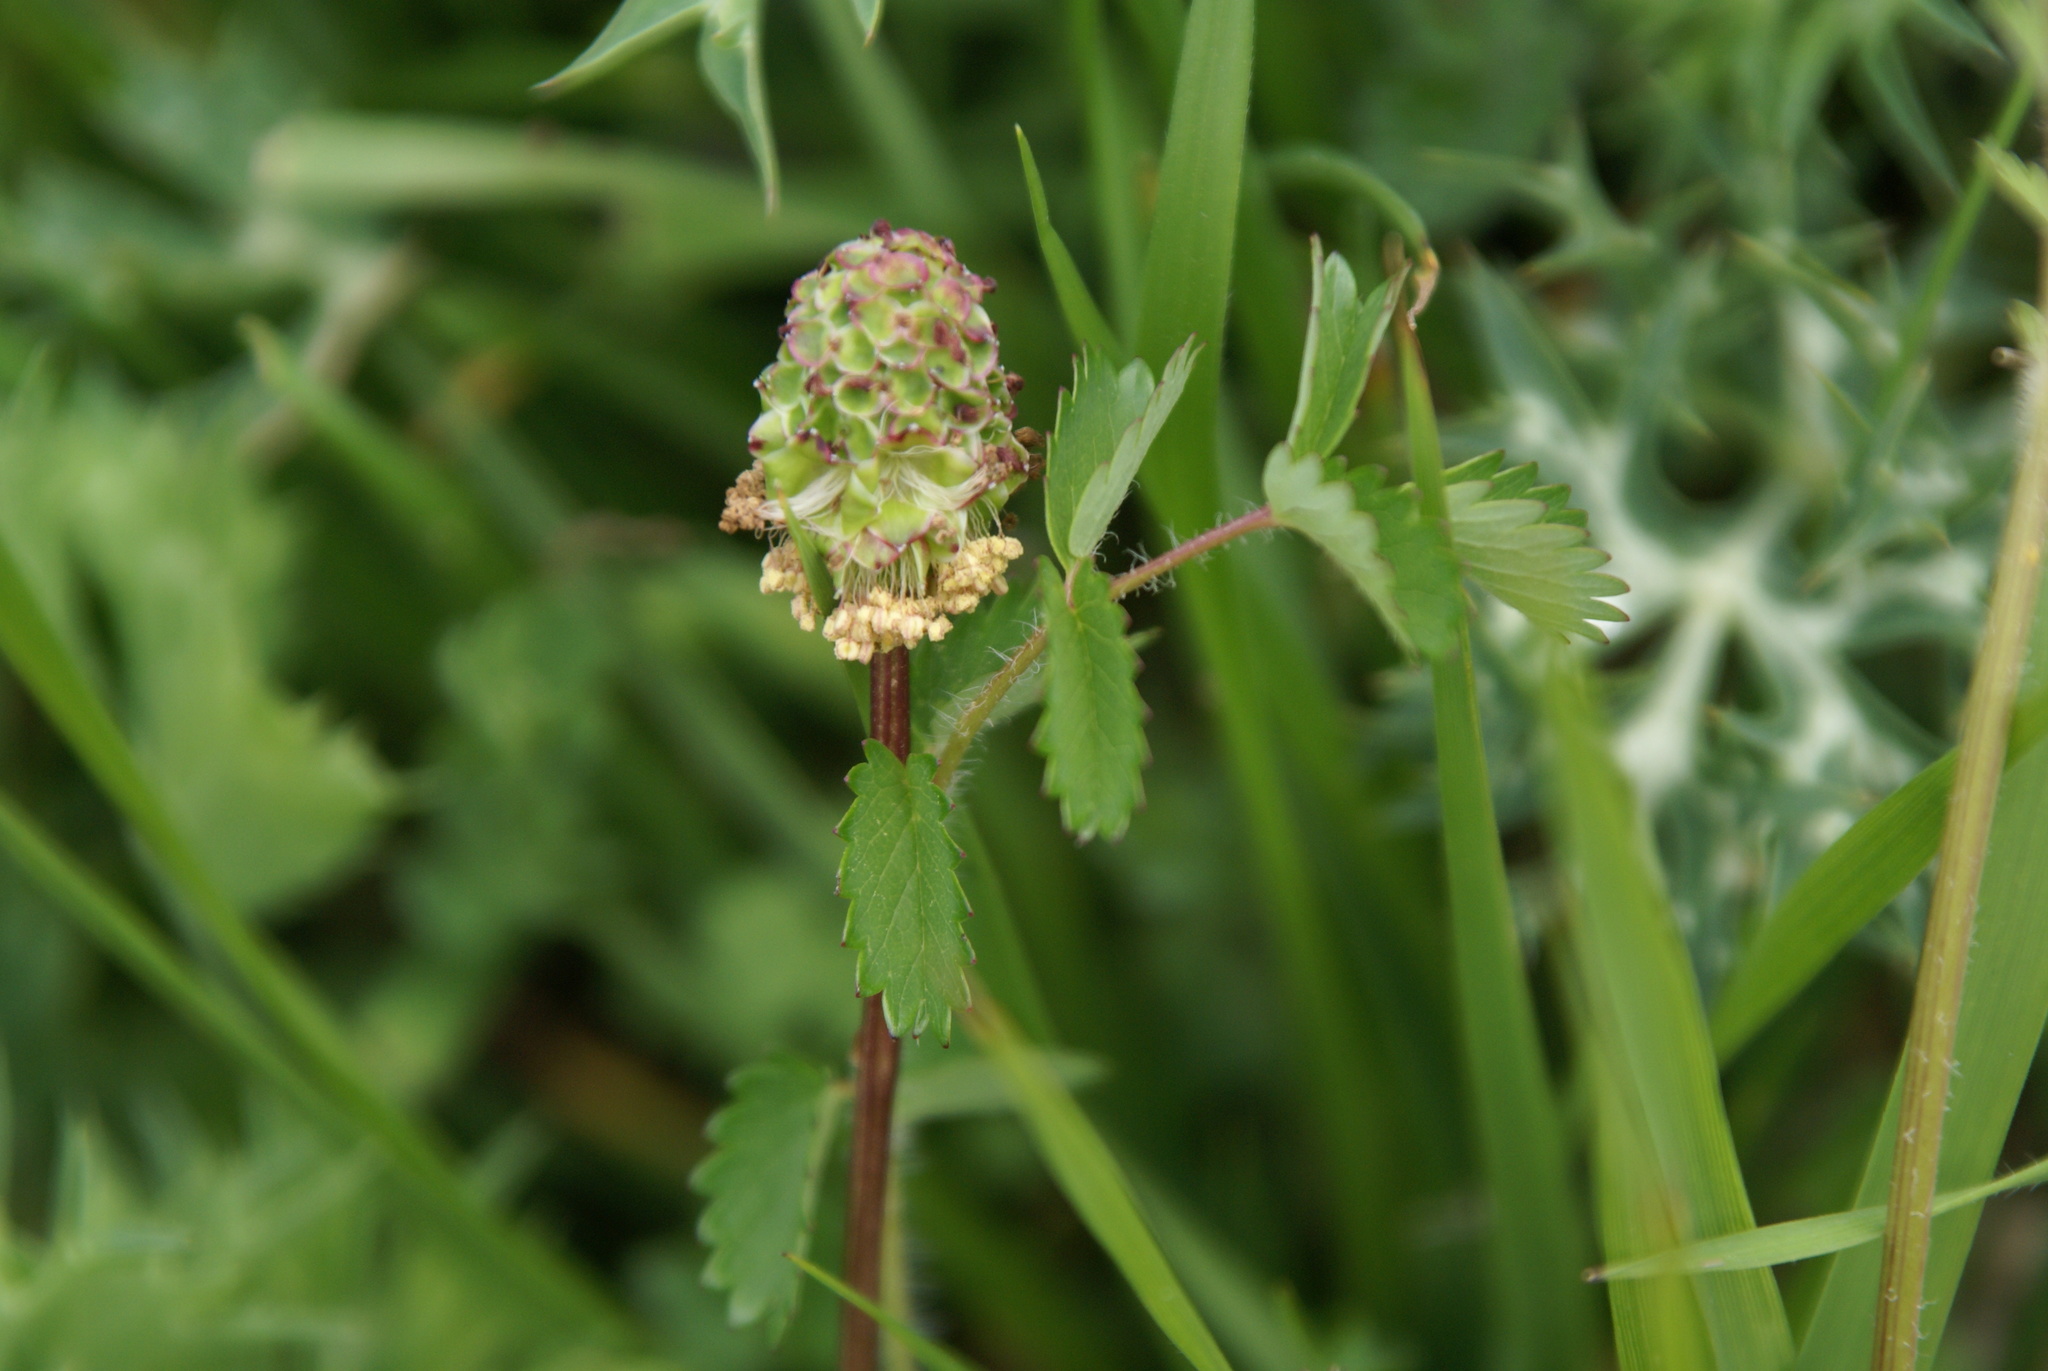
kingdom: Plantae
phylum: Tracheophyta
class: Magnoliopsida
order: Rosales
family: Rosaceae
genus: Poterium
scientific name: Poterium sanguisorba
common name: Salad burnet
